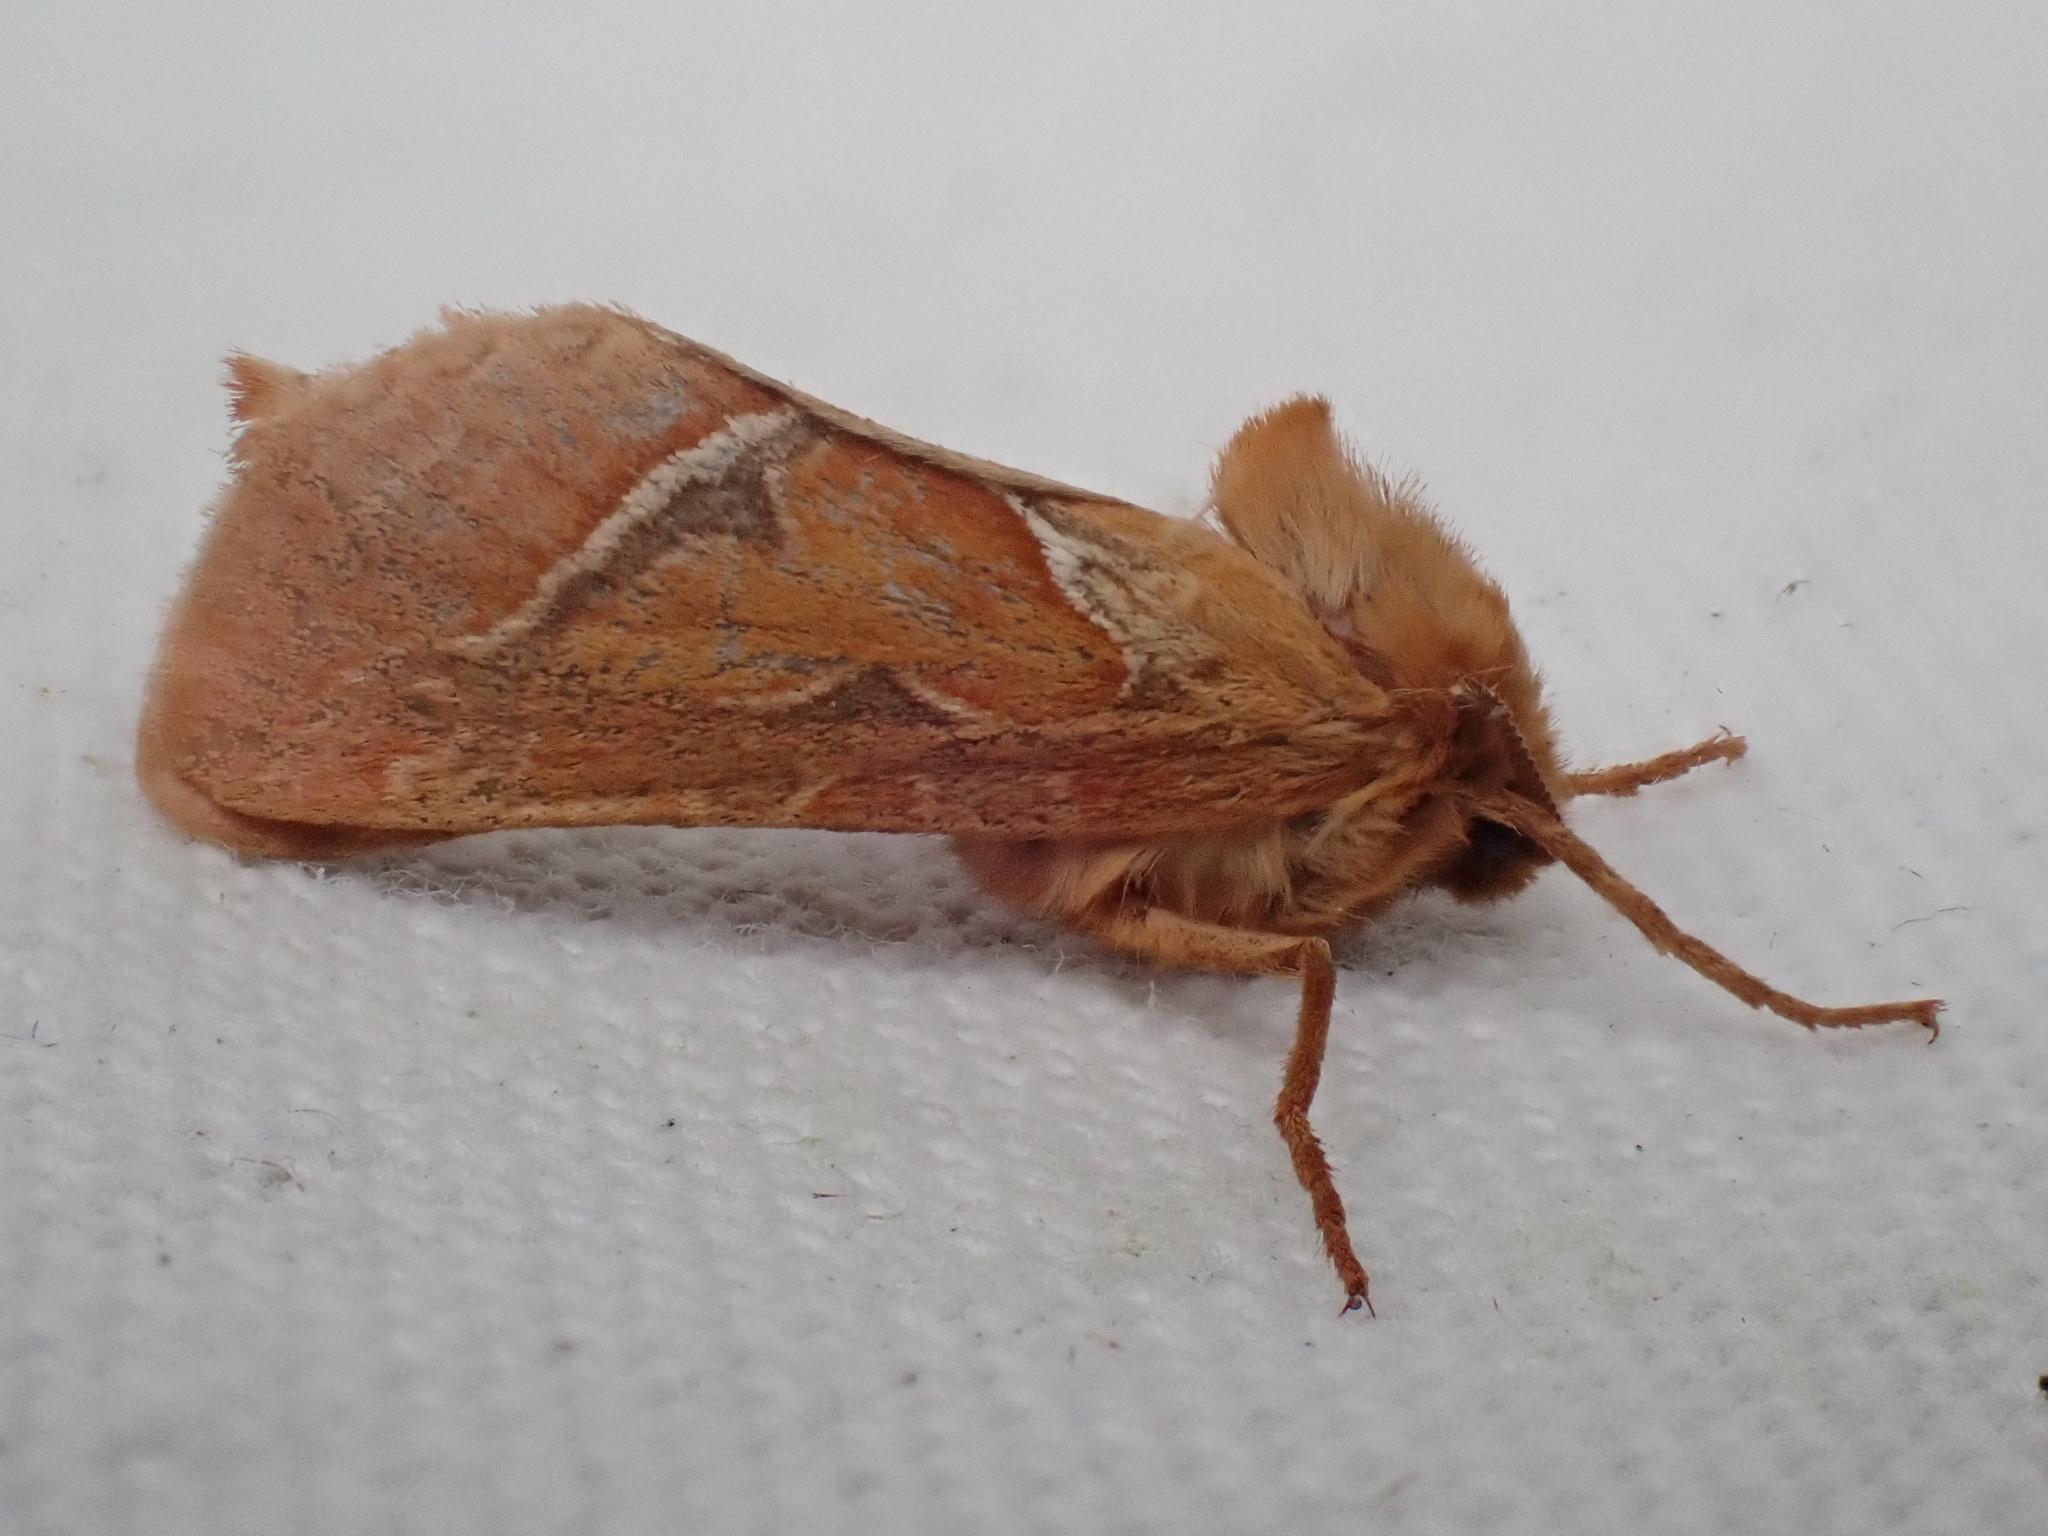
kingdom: Animalia
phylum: Arthropoda
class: Insecta
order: Lepidoptera
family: Hepialidae
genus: Triodia
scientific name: Triodia sylvina
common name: Orange swift
